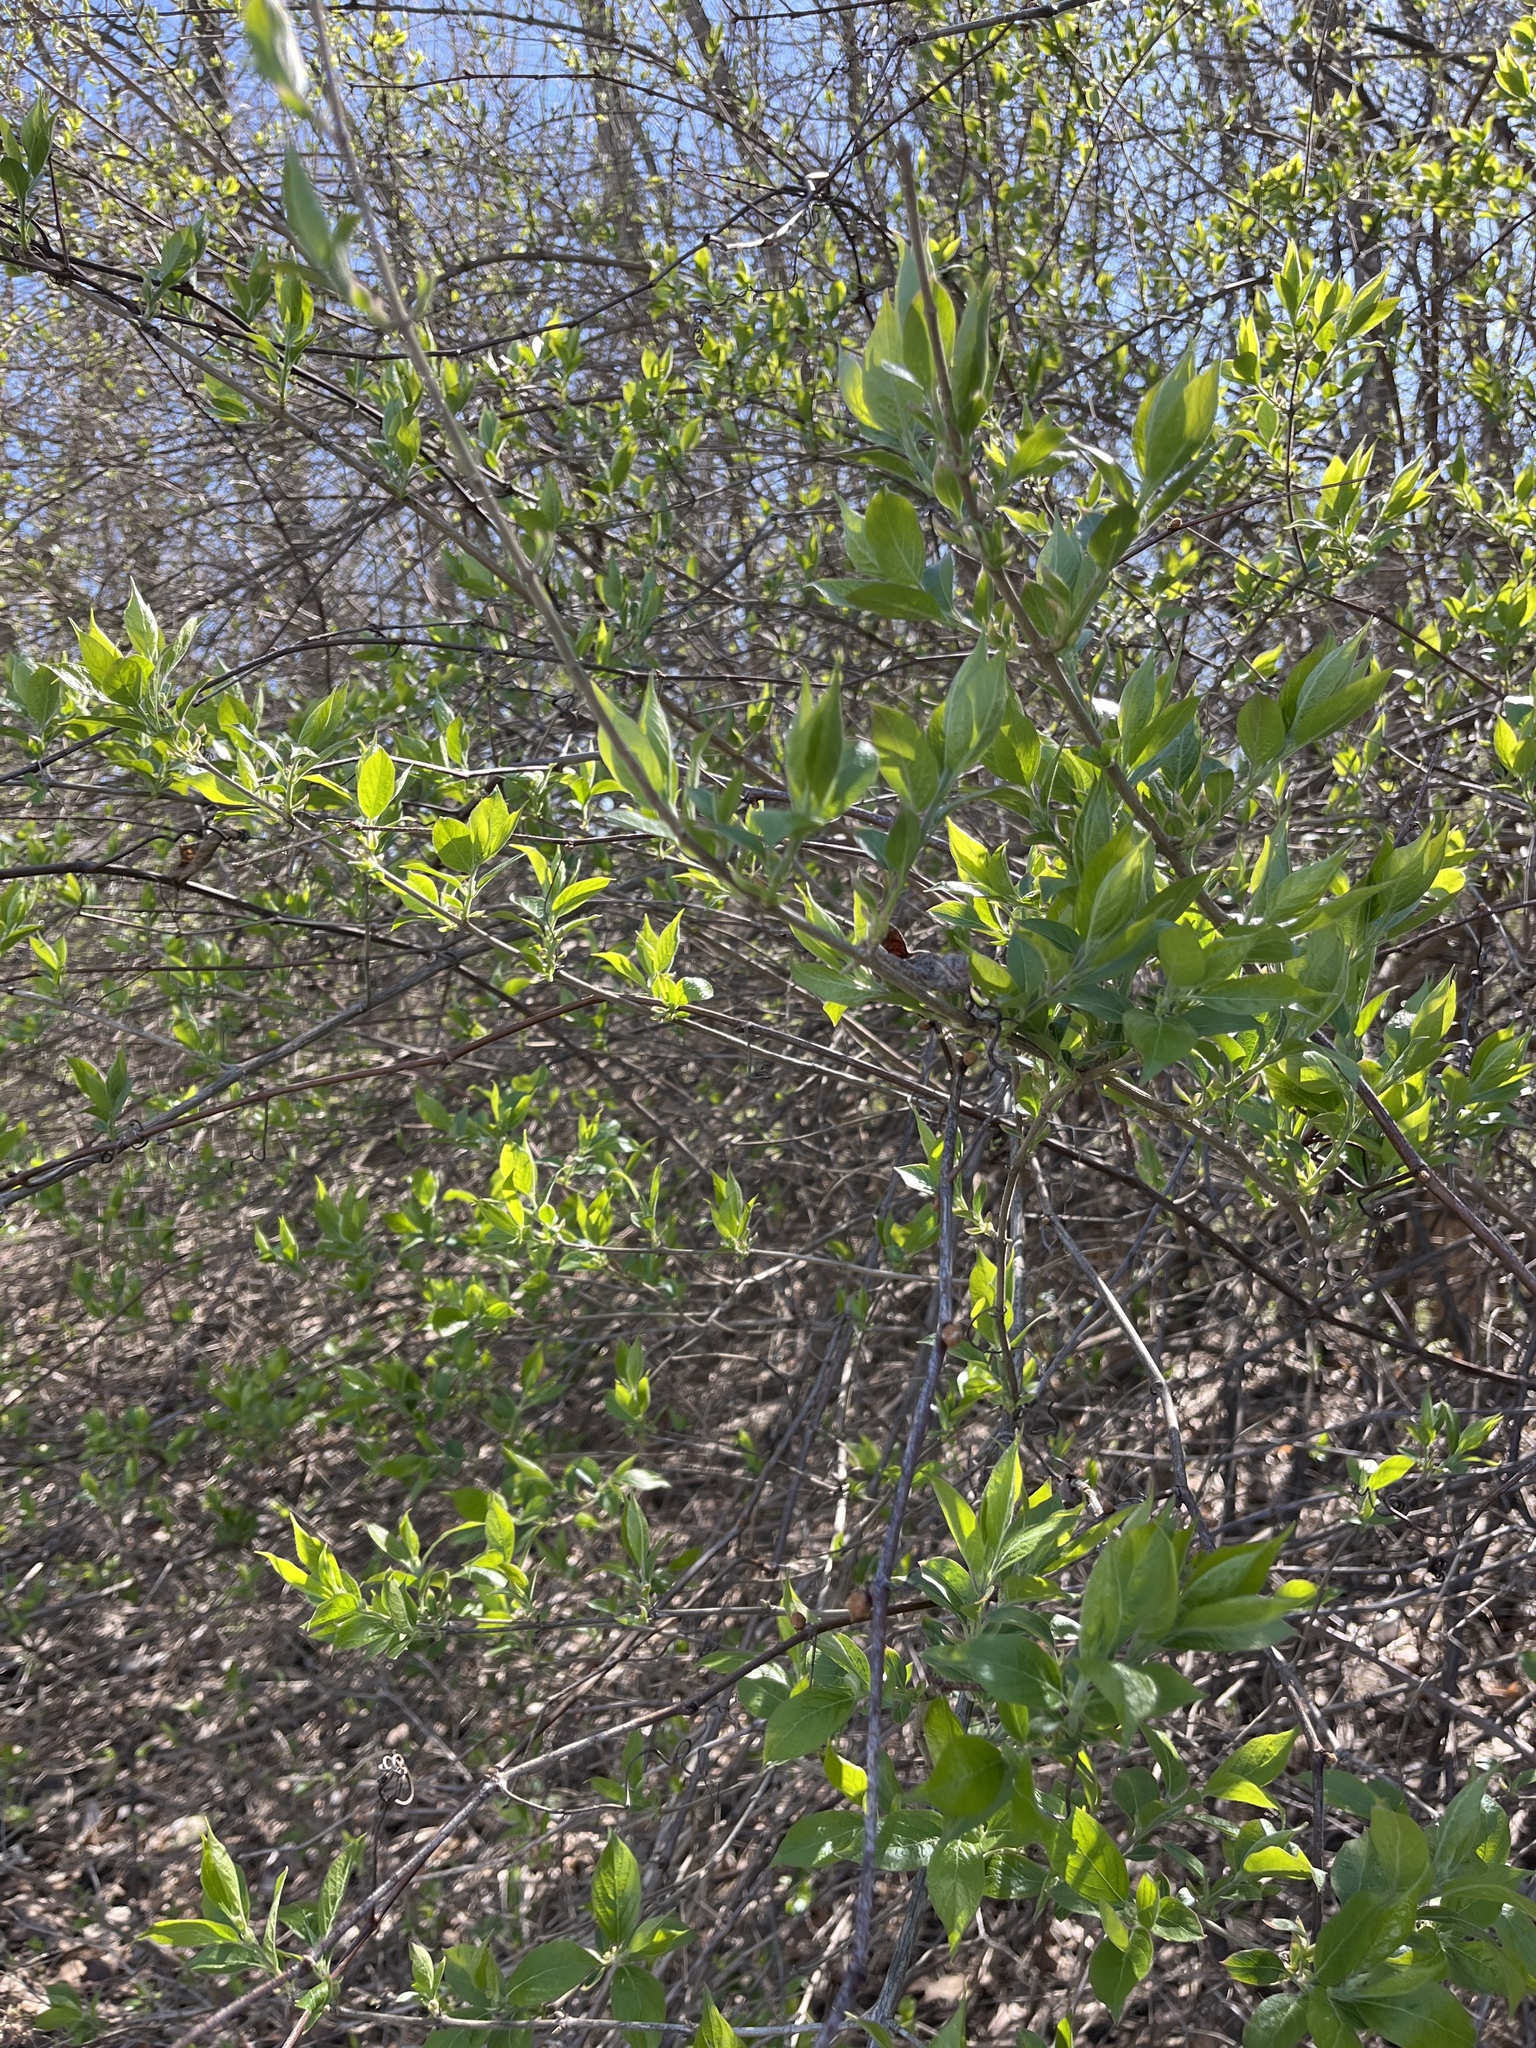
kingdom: Plantae
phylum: Tracheophyta
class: Magnoliopsida
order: Dipsacales
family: Caprifoliaceae
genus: Lonicera
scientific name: Lonicera maackii
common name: Amur honeysuckle
